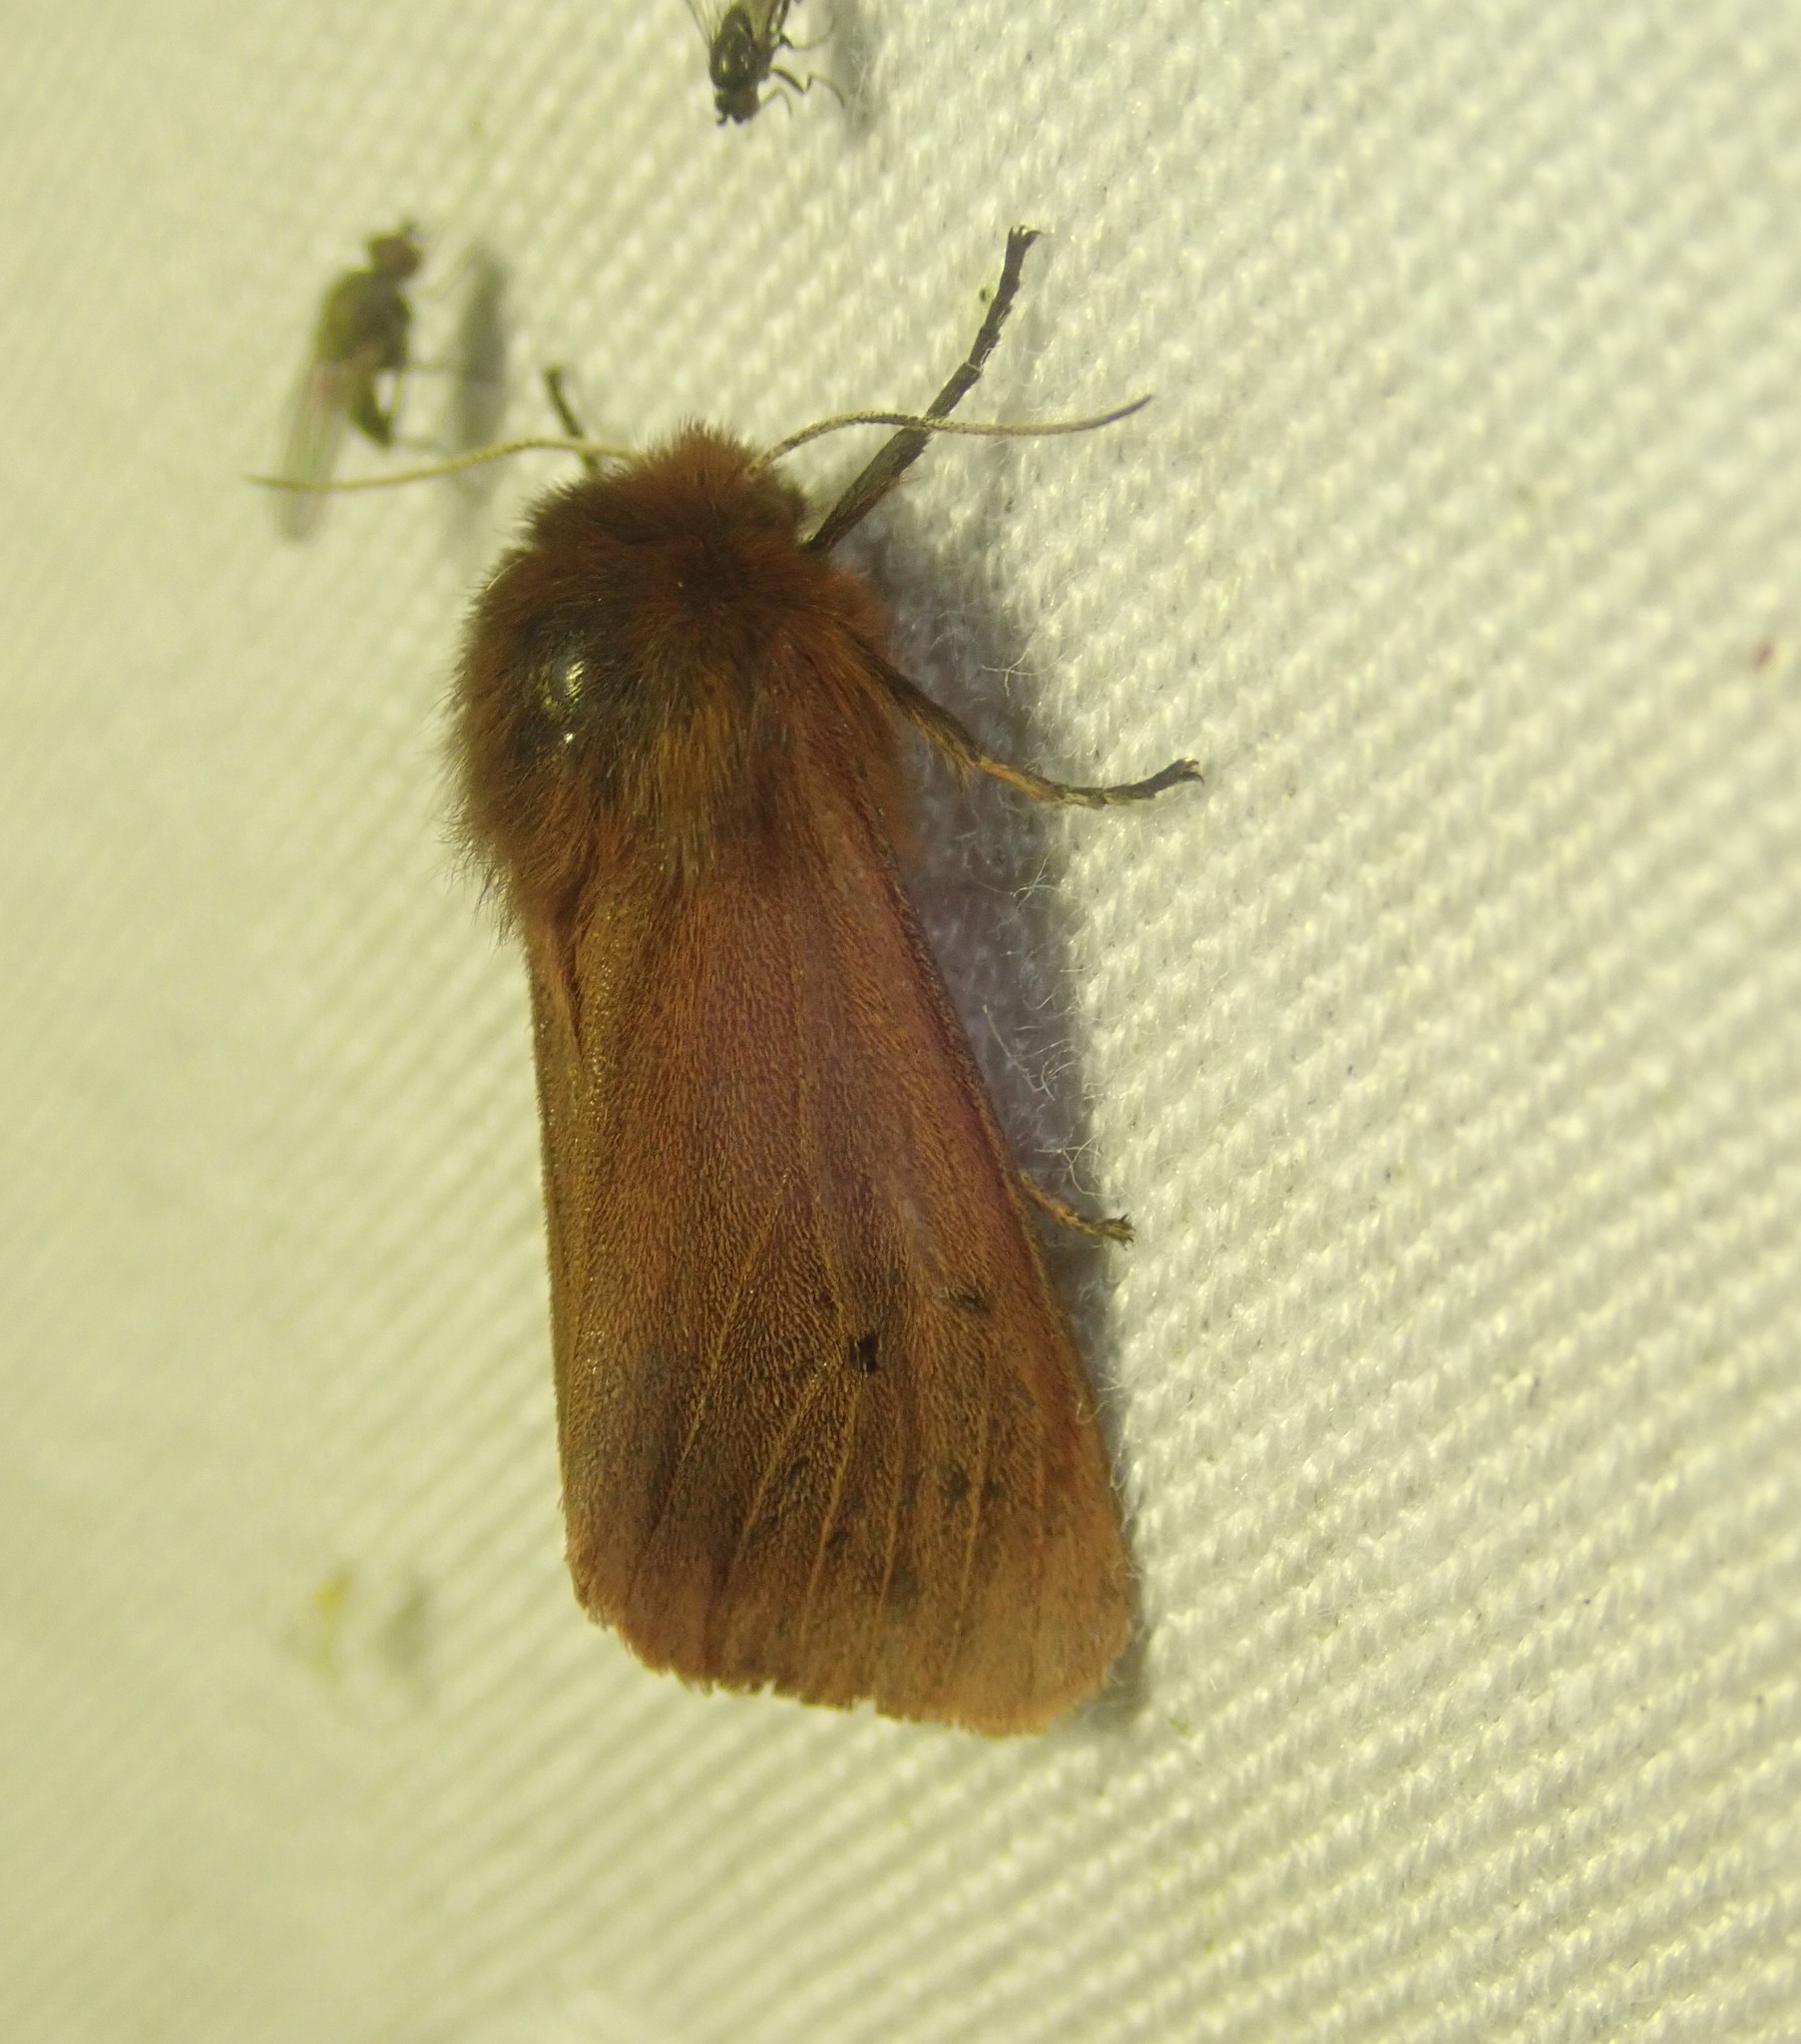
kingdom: Animalia
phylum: Arthropoda
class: Insecta
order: Lepidoptera
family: Erebidae
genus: Phragmatobia
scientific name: Phragmatobia fuliginosa
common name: Ruby tiger
